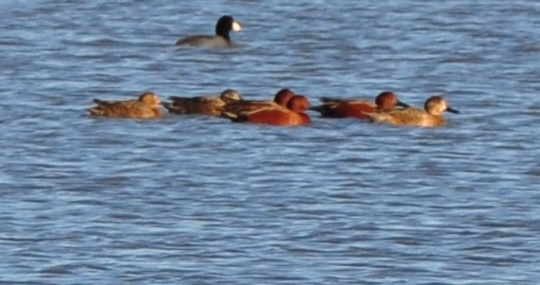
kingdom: Animalia
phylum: Chordata
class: Aves
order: Anseriformes
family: Anatidae
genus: Spatula
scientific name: Spatula cyanoptera
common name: Cinnamon teal
